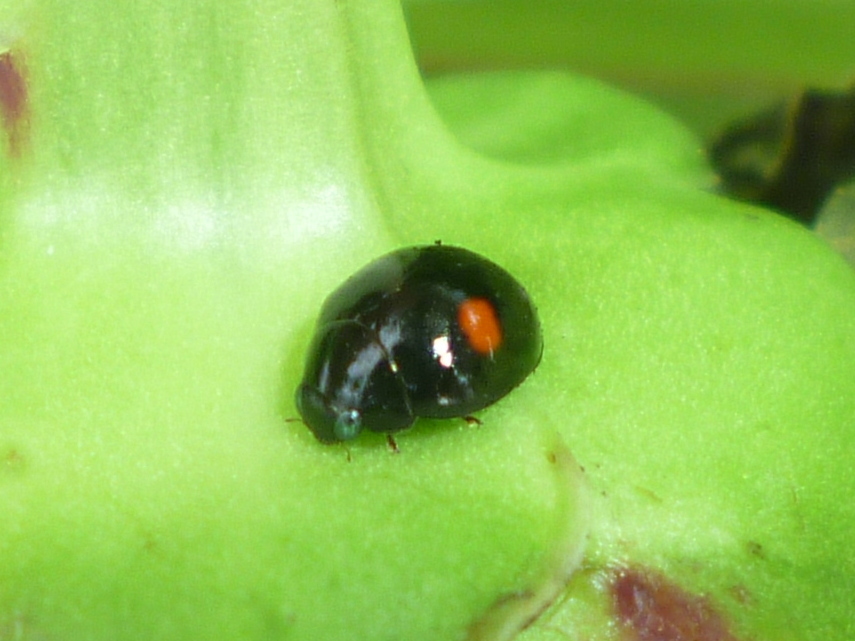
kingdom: Animalia
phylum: Arthropoda
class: Insecta
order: Coleoptera
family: Coccinellidae
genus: Hyperaspis
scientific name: Hyperaspis
